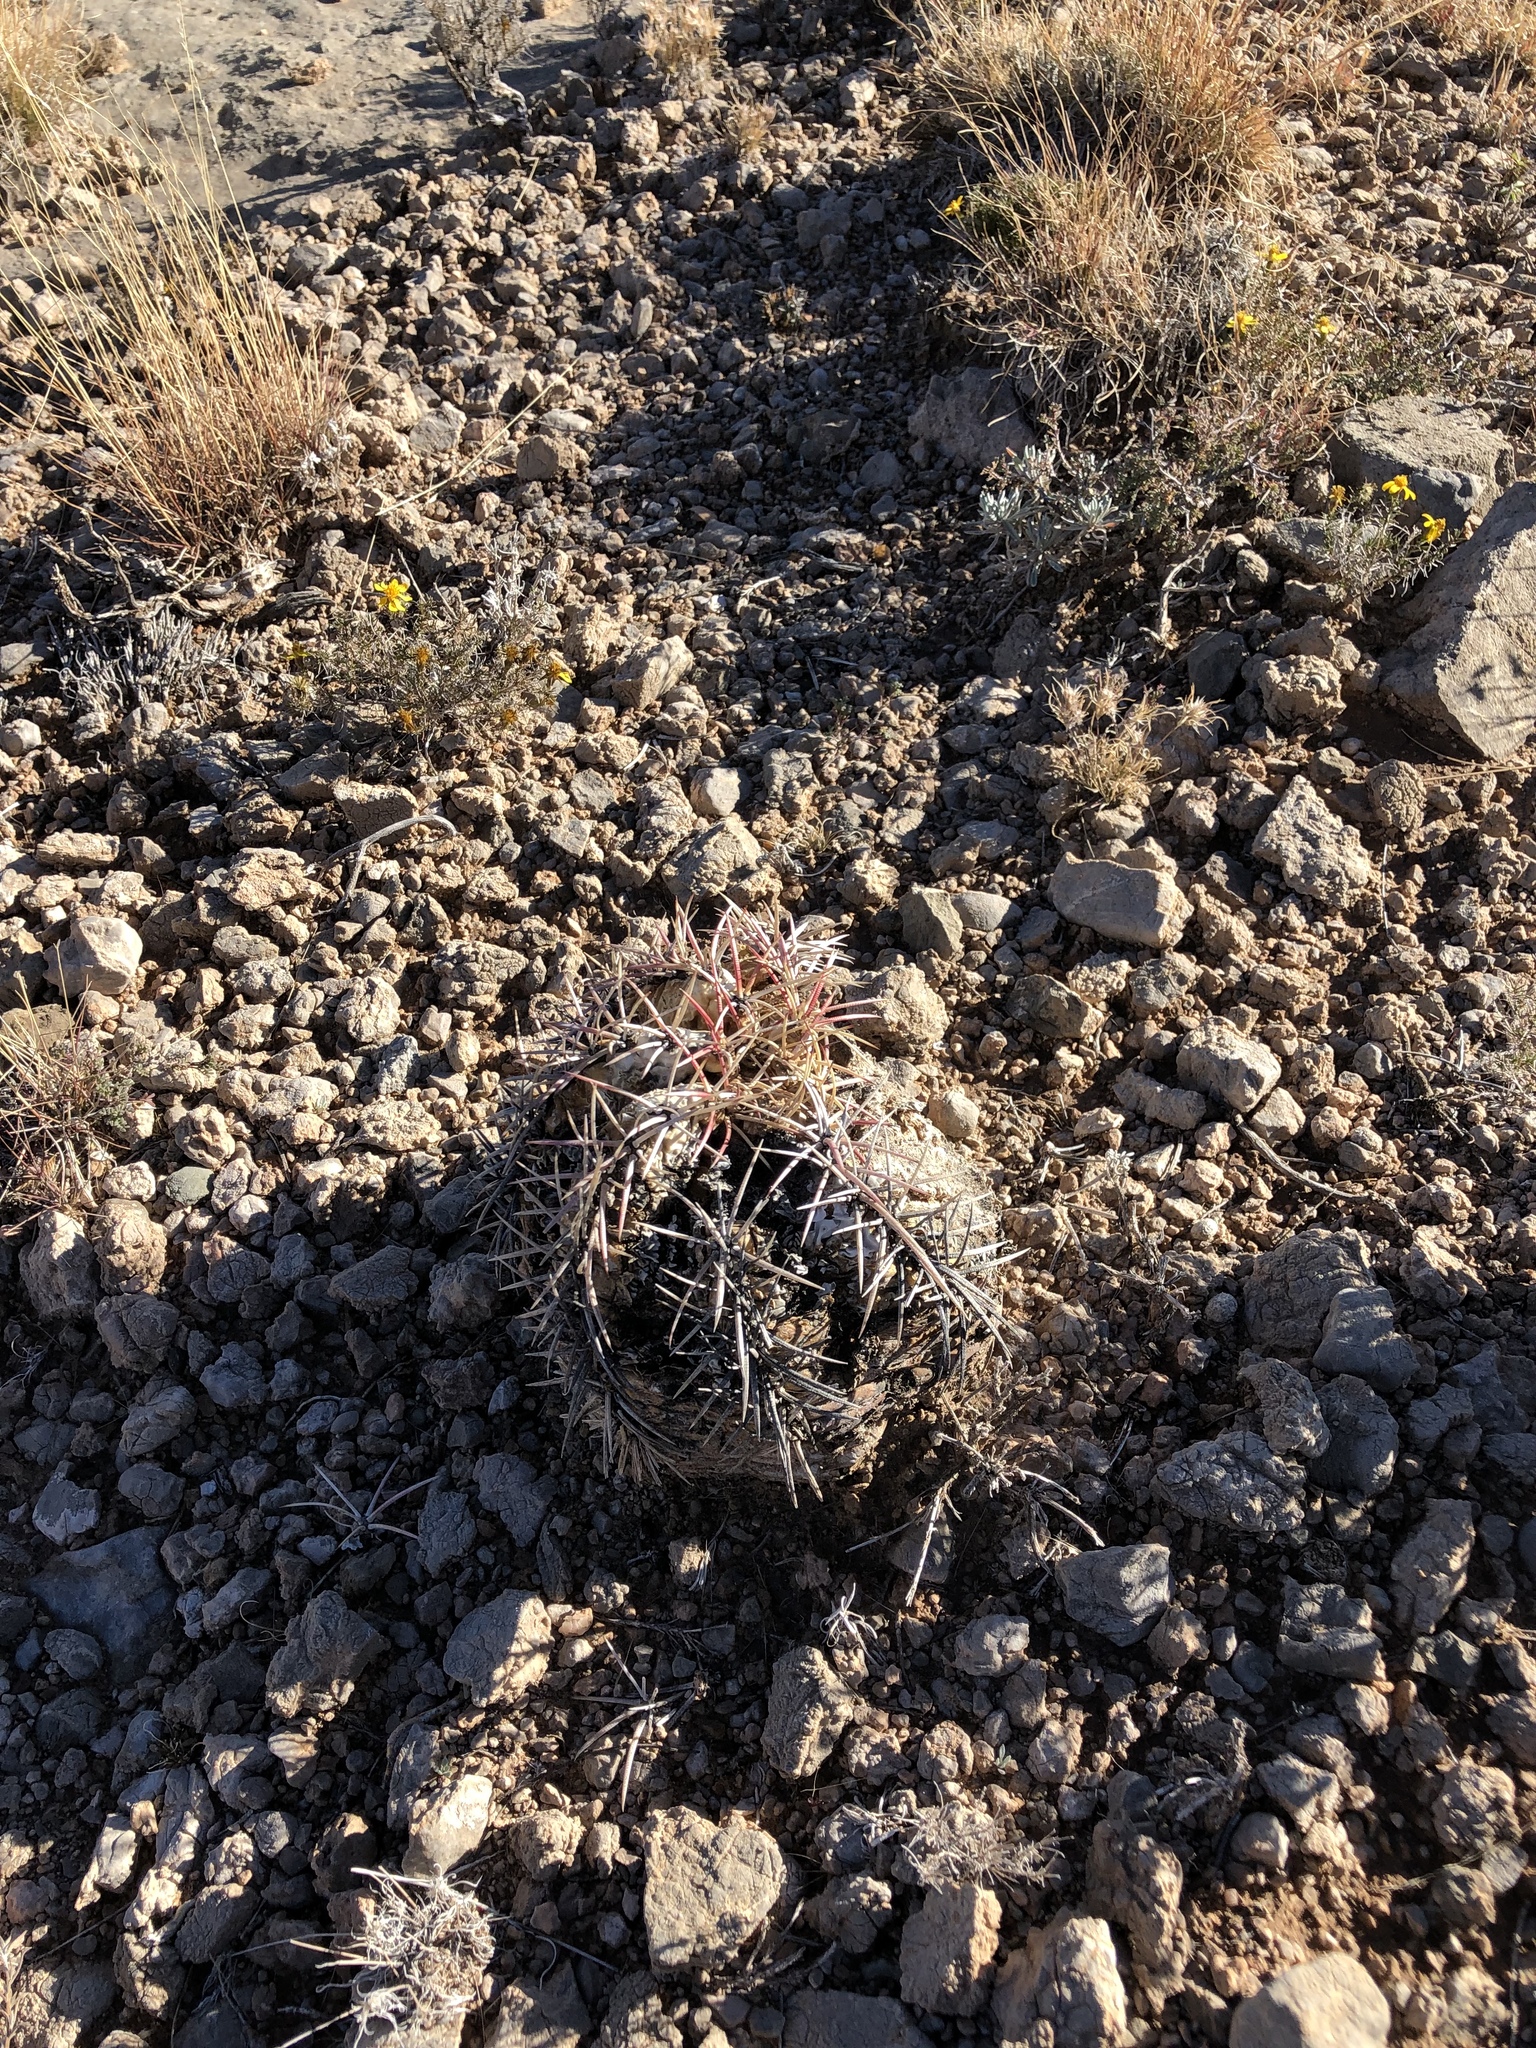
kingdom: Plantae
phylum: Tracheophyta
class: Magnoliopsida
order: Caryophyllales
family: Cactaceae
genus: Echinocactus
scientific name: Echinocactus horizonthalonius
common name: Devilshead
